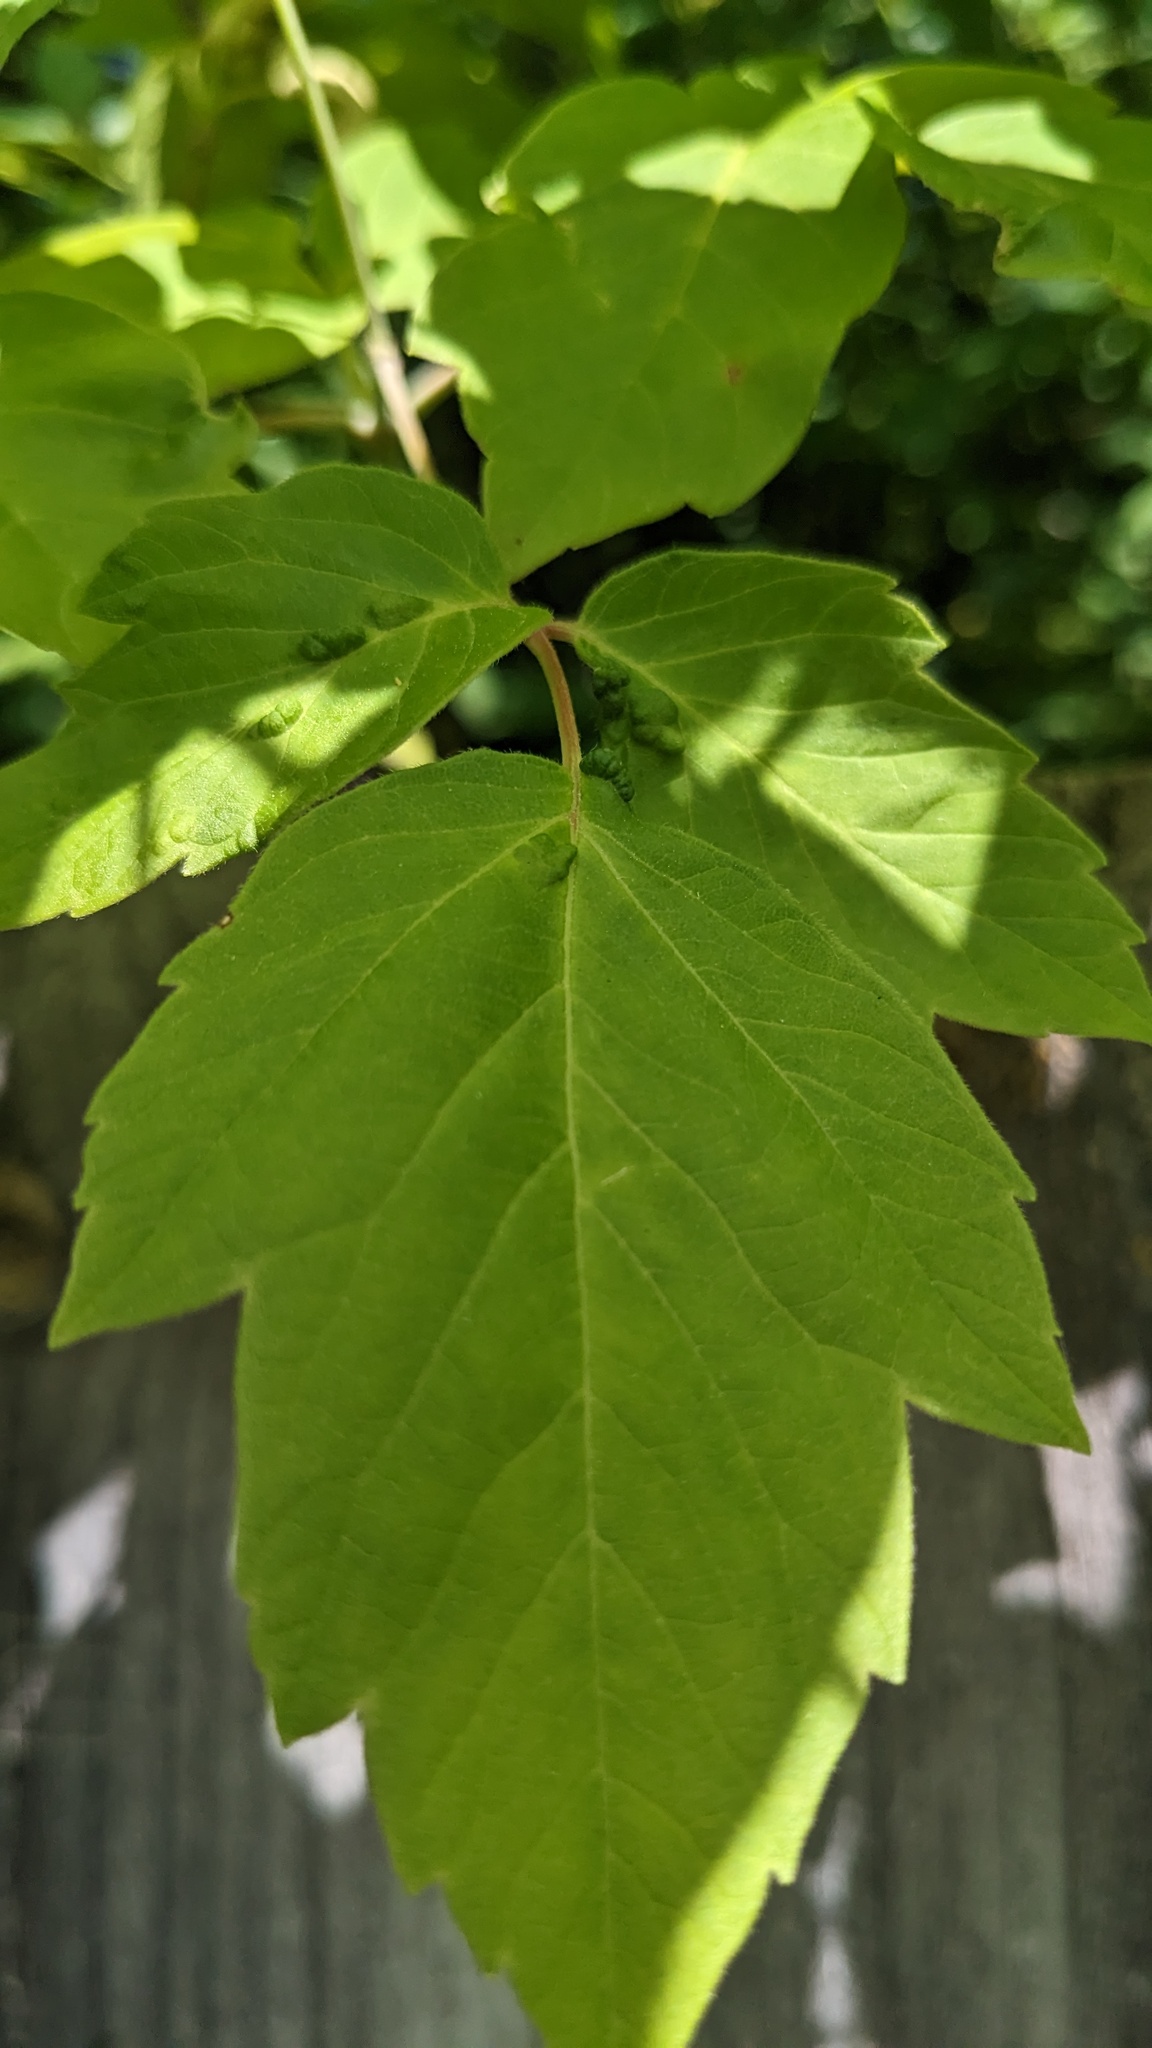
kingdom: Animalia
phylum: Arthropoda
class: Arachnida
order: Trombidiformes
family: Eriophyidae
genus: Aceria
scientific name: Aceria
